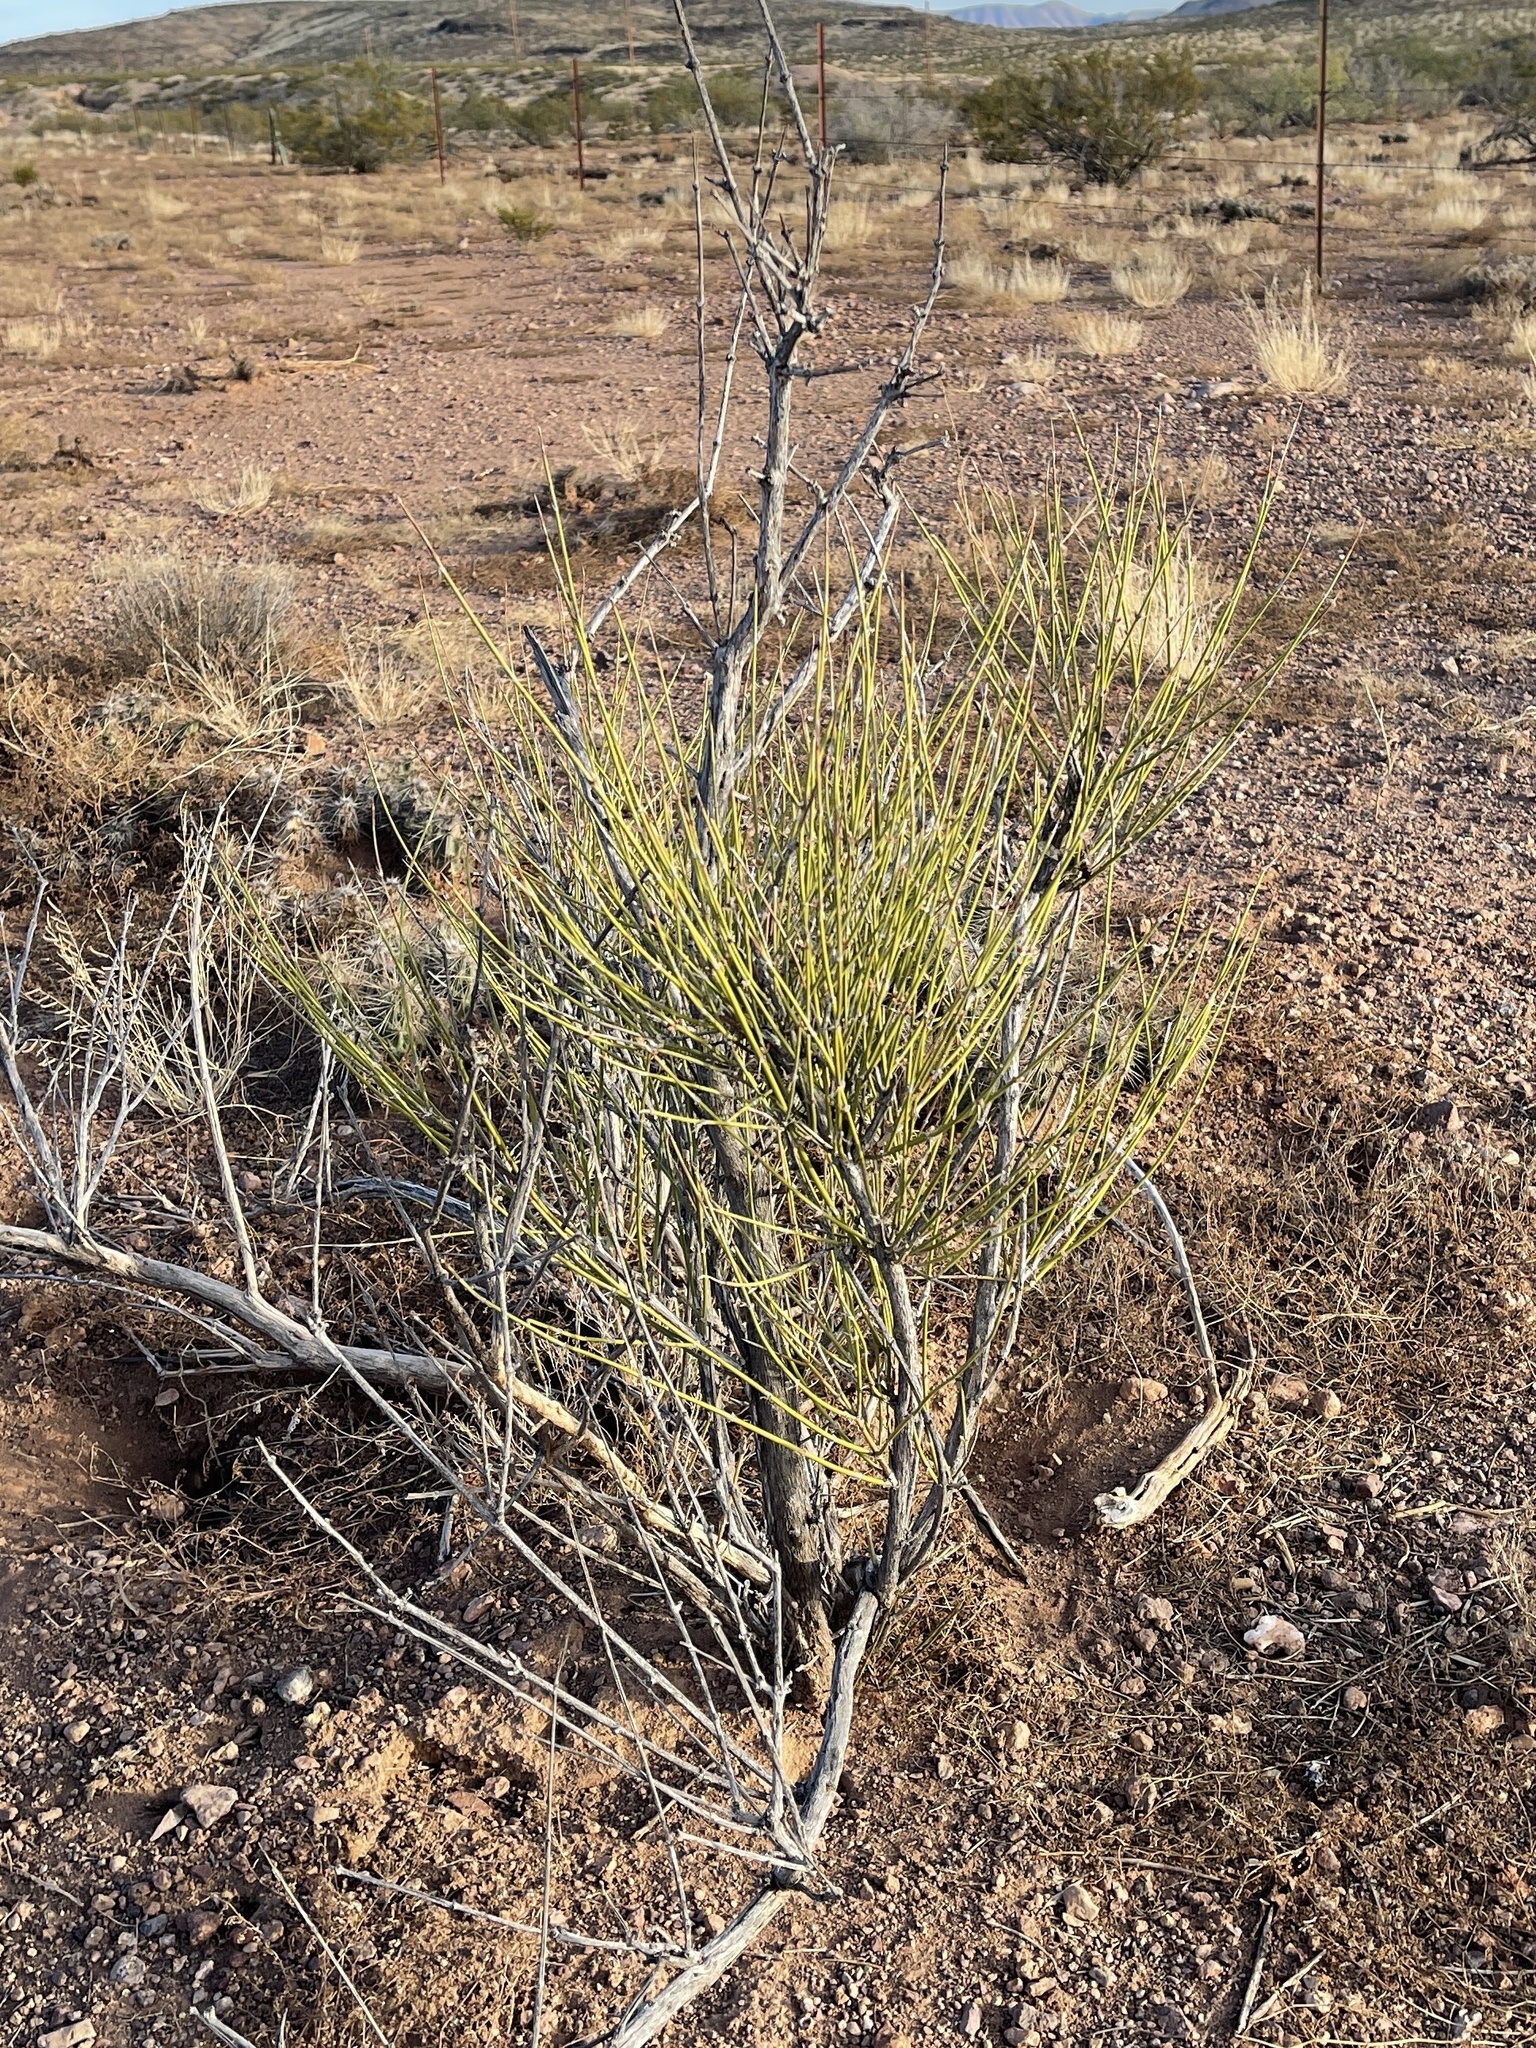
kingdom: Plantae
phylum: Tracheophyta
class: Gnetopsida
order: Ephedrales
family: Ephedraceae
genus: Ephedra
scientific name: Ephedra trifurca
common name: Mexican-tea
